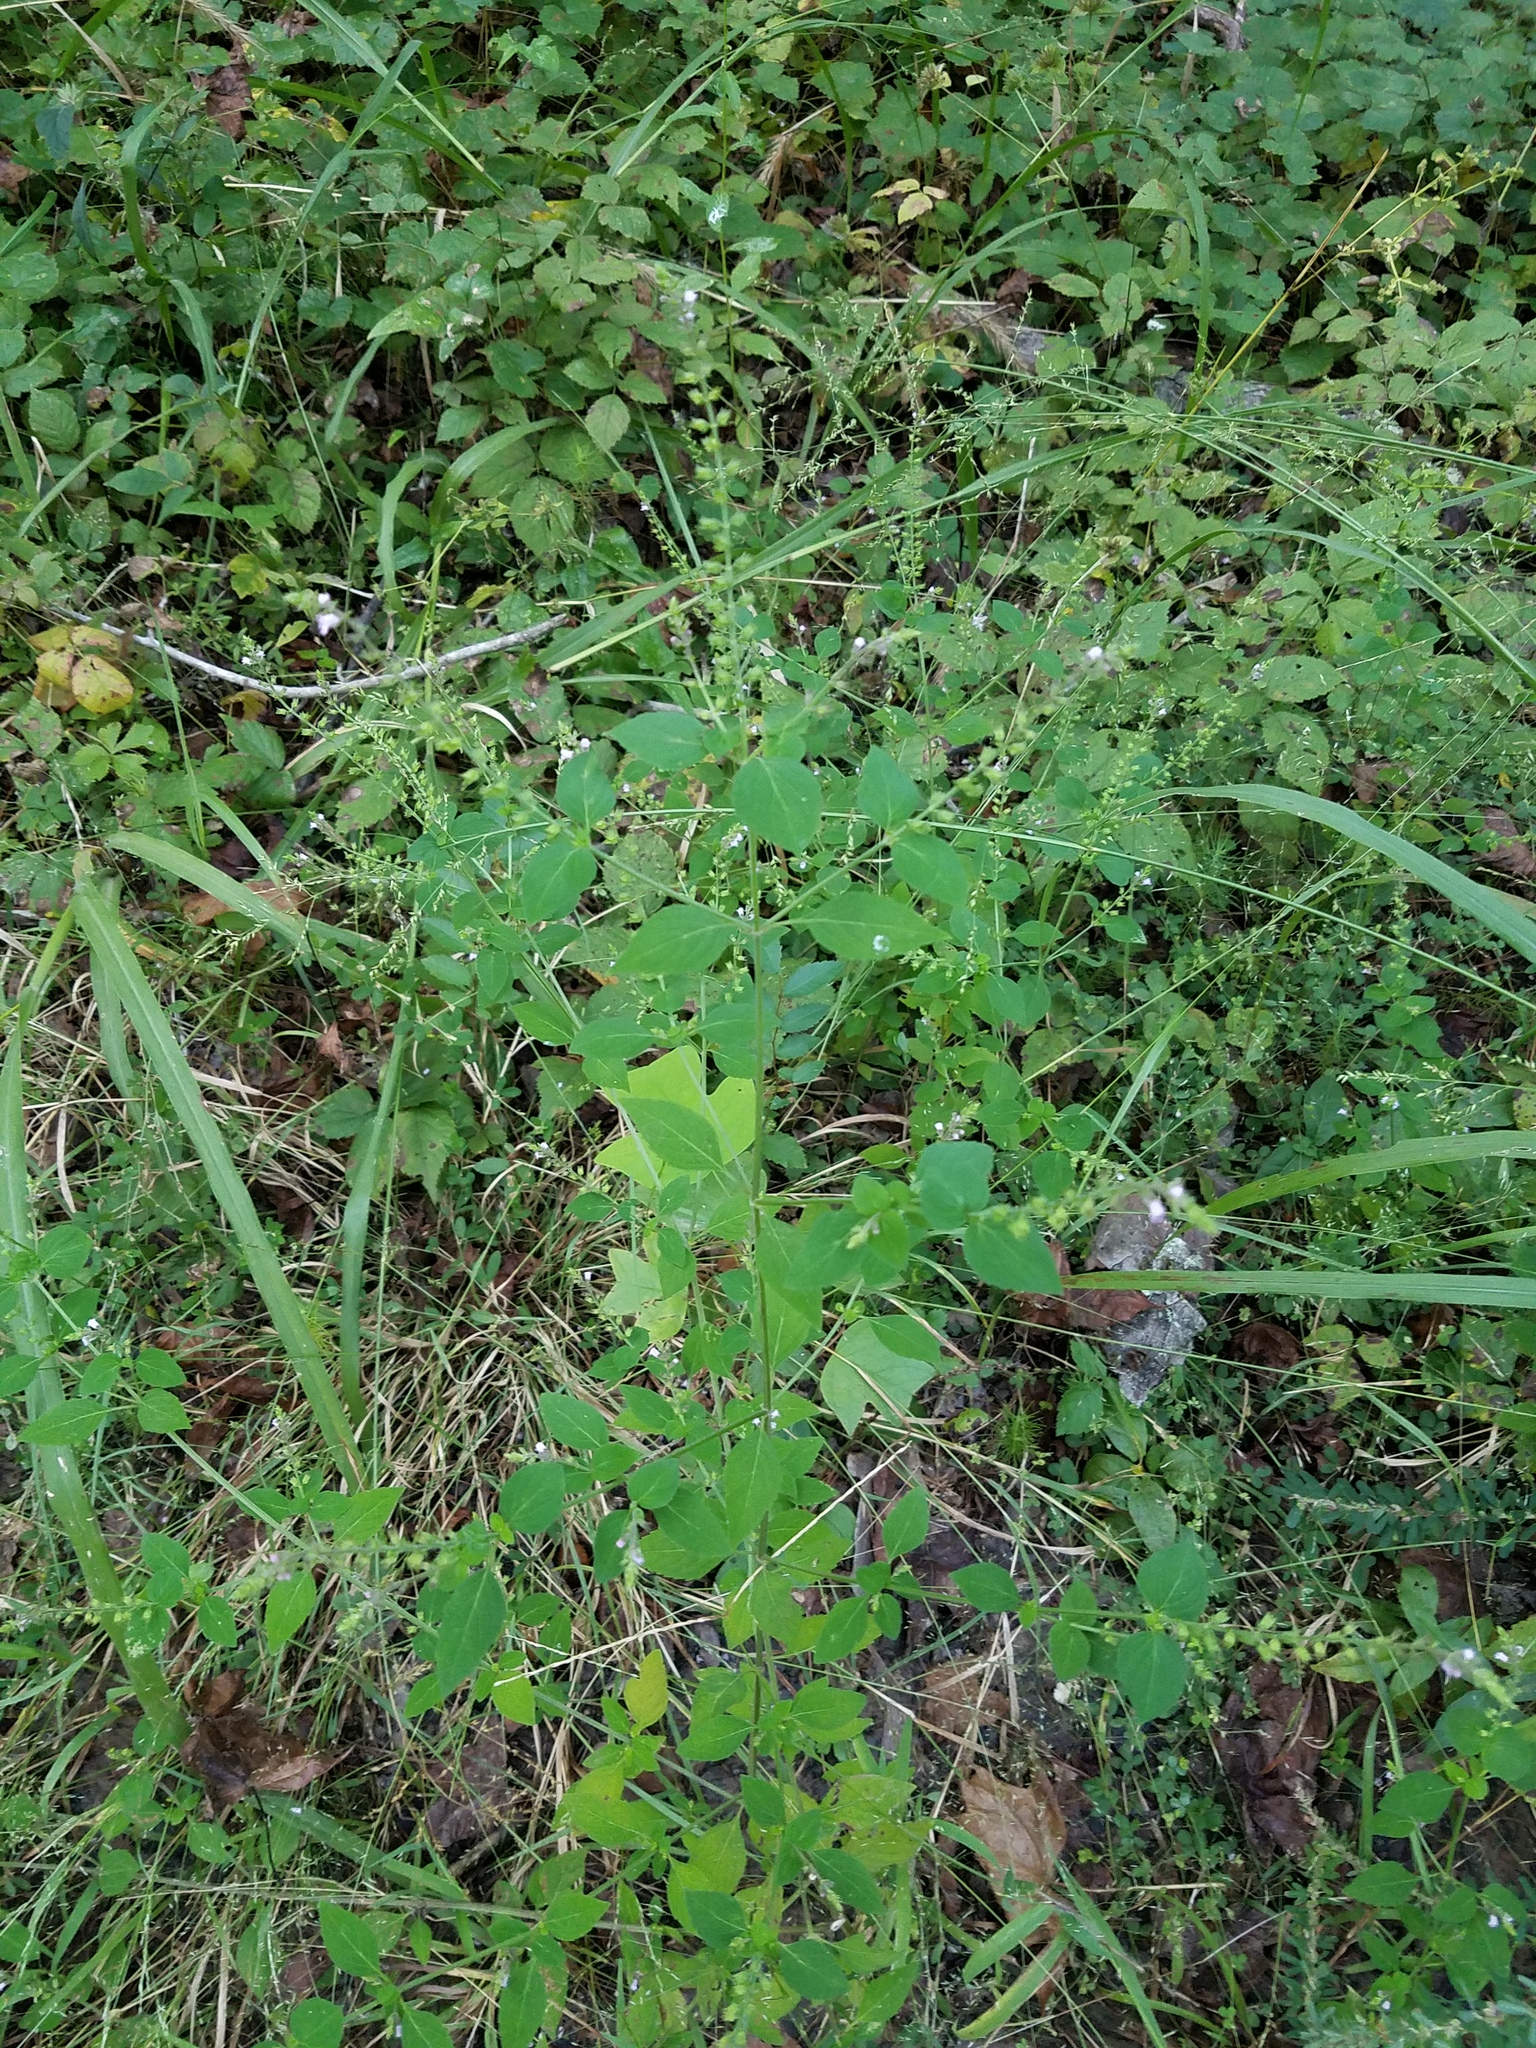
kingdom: Plantae
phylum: Tracheophyta
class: Magnoliopsida
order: Lamiales
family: Lamiaceae
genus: Mosla
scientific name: Mosla dianthera
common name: Miniature beefsteakplant
